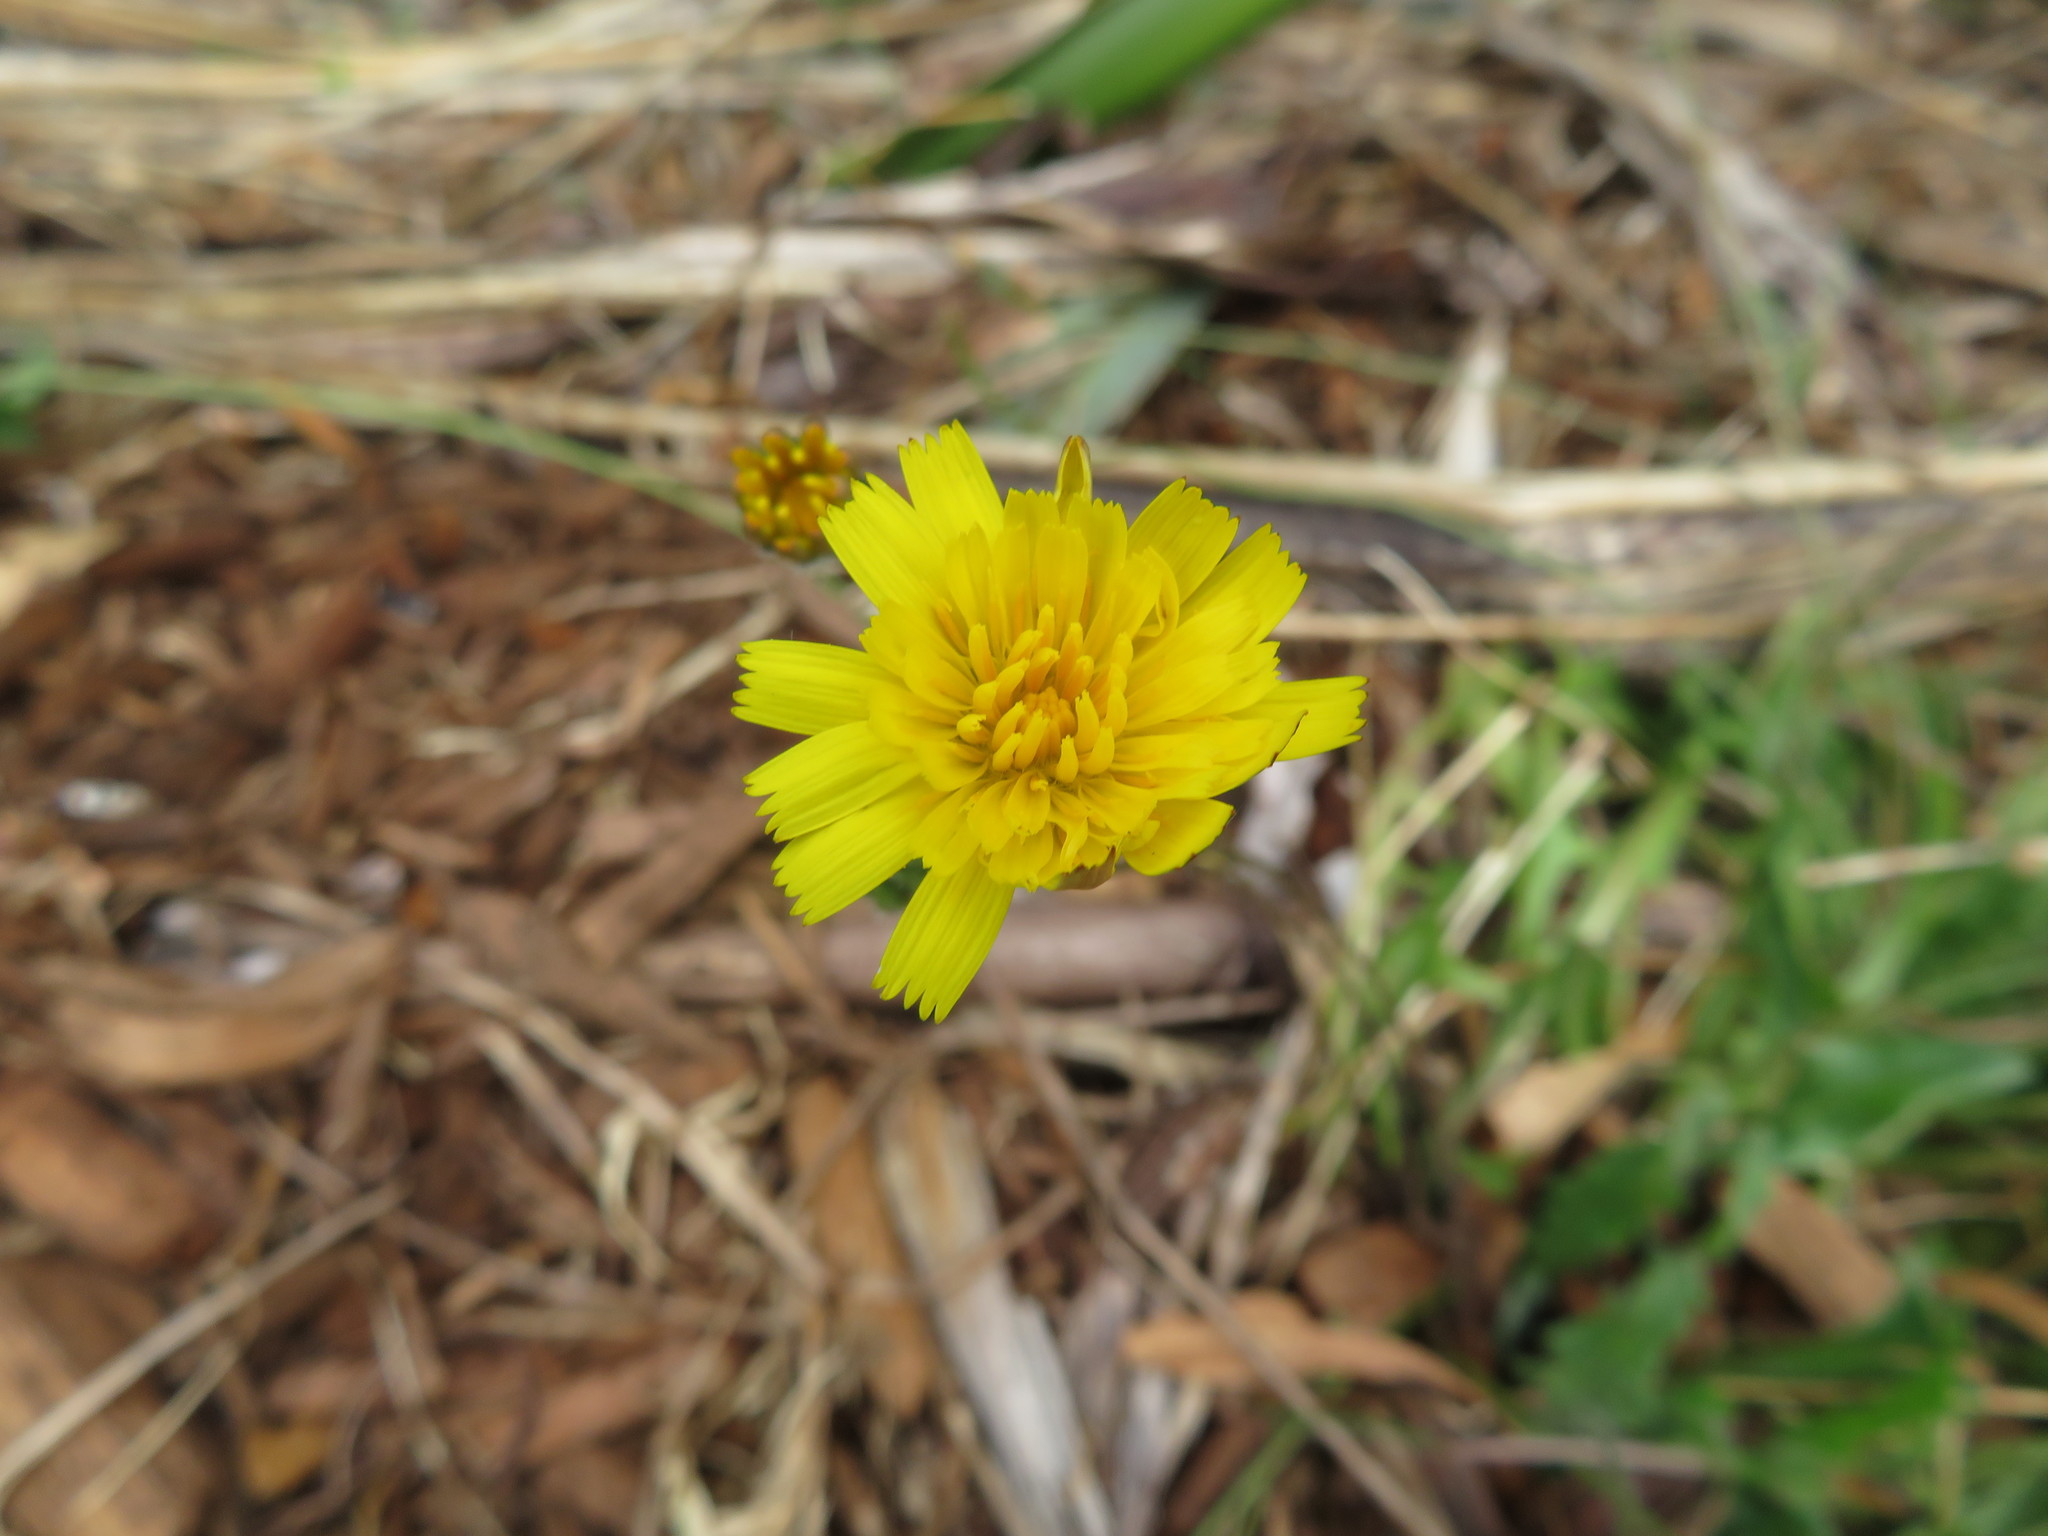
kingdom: Plantae
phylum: Tracheophyta
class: Magnoliopsida
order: Asterales
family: Asteraceae
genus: Hypochaeris
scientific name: Hypochaeris radicata
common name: Flatweed
